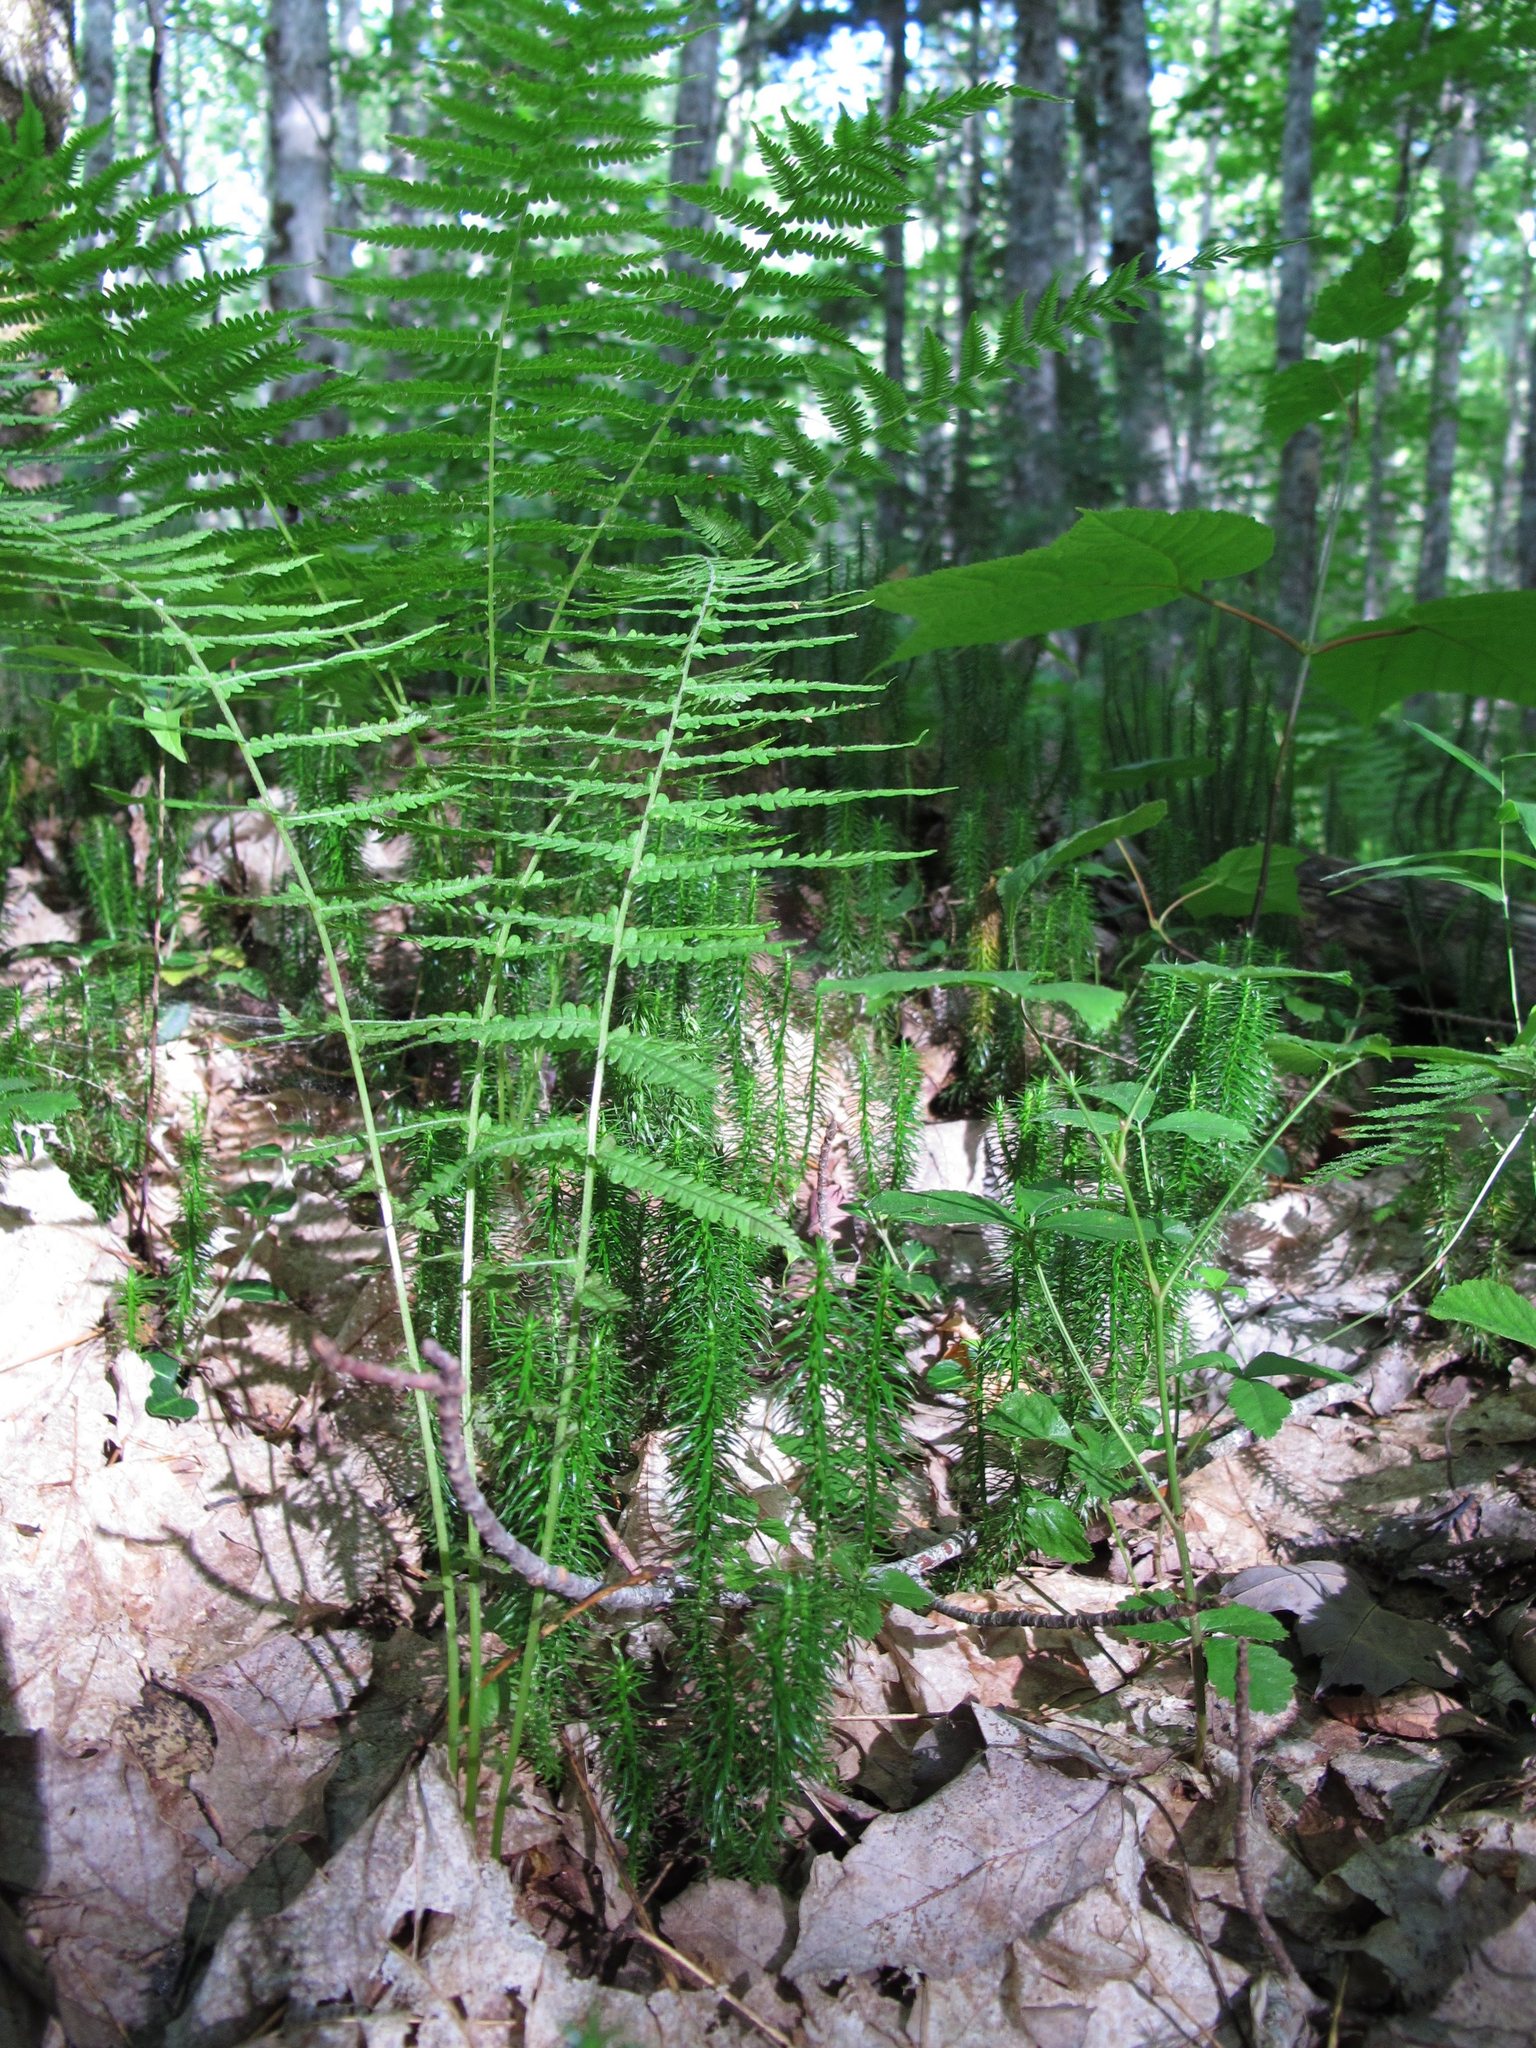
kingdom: Plantae
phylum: Tracheophyta
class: Lycopodiopsida
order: Lycopodiales
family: Lycopodiaceae
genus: Spinulum
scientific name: Spinulum annotinum
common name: Interrupted club-moss
